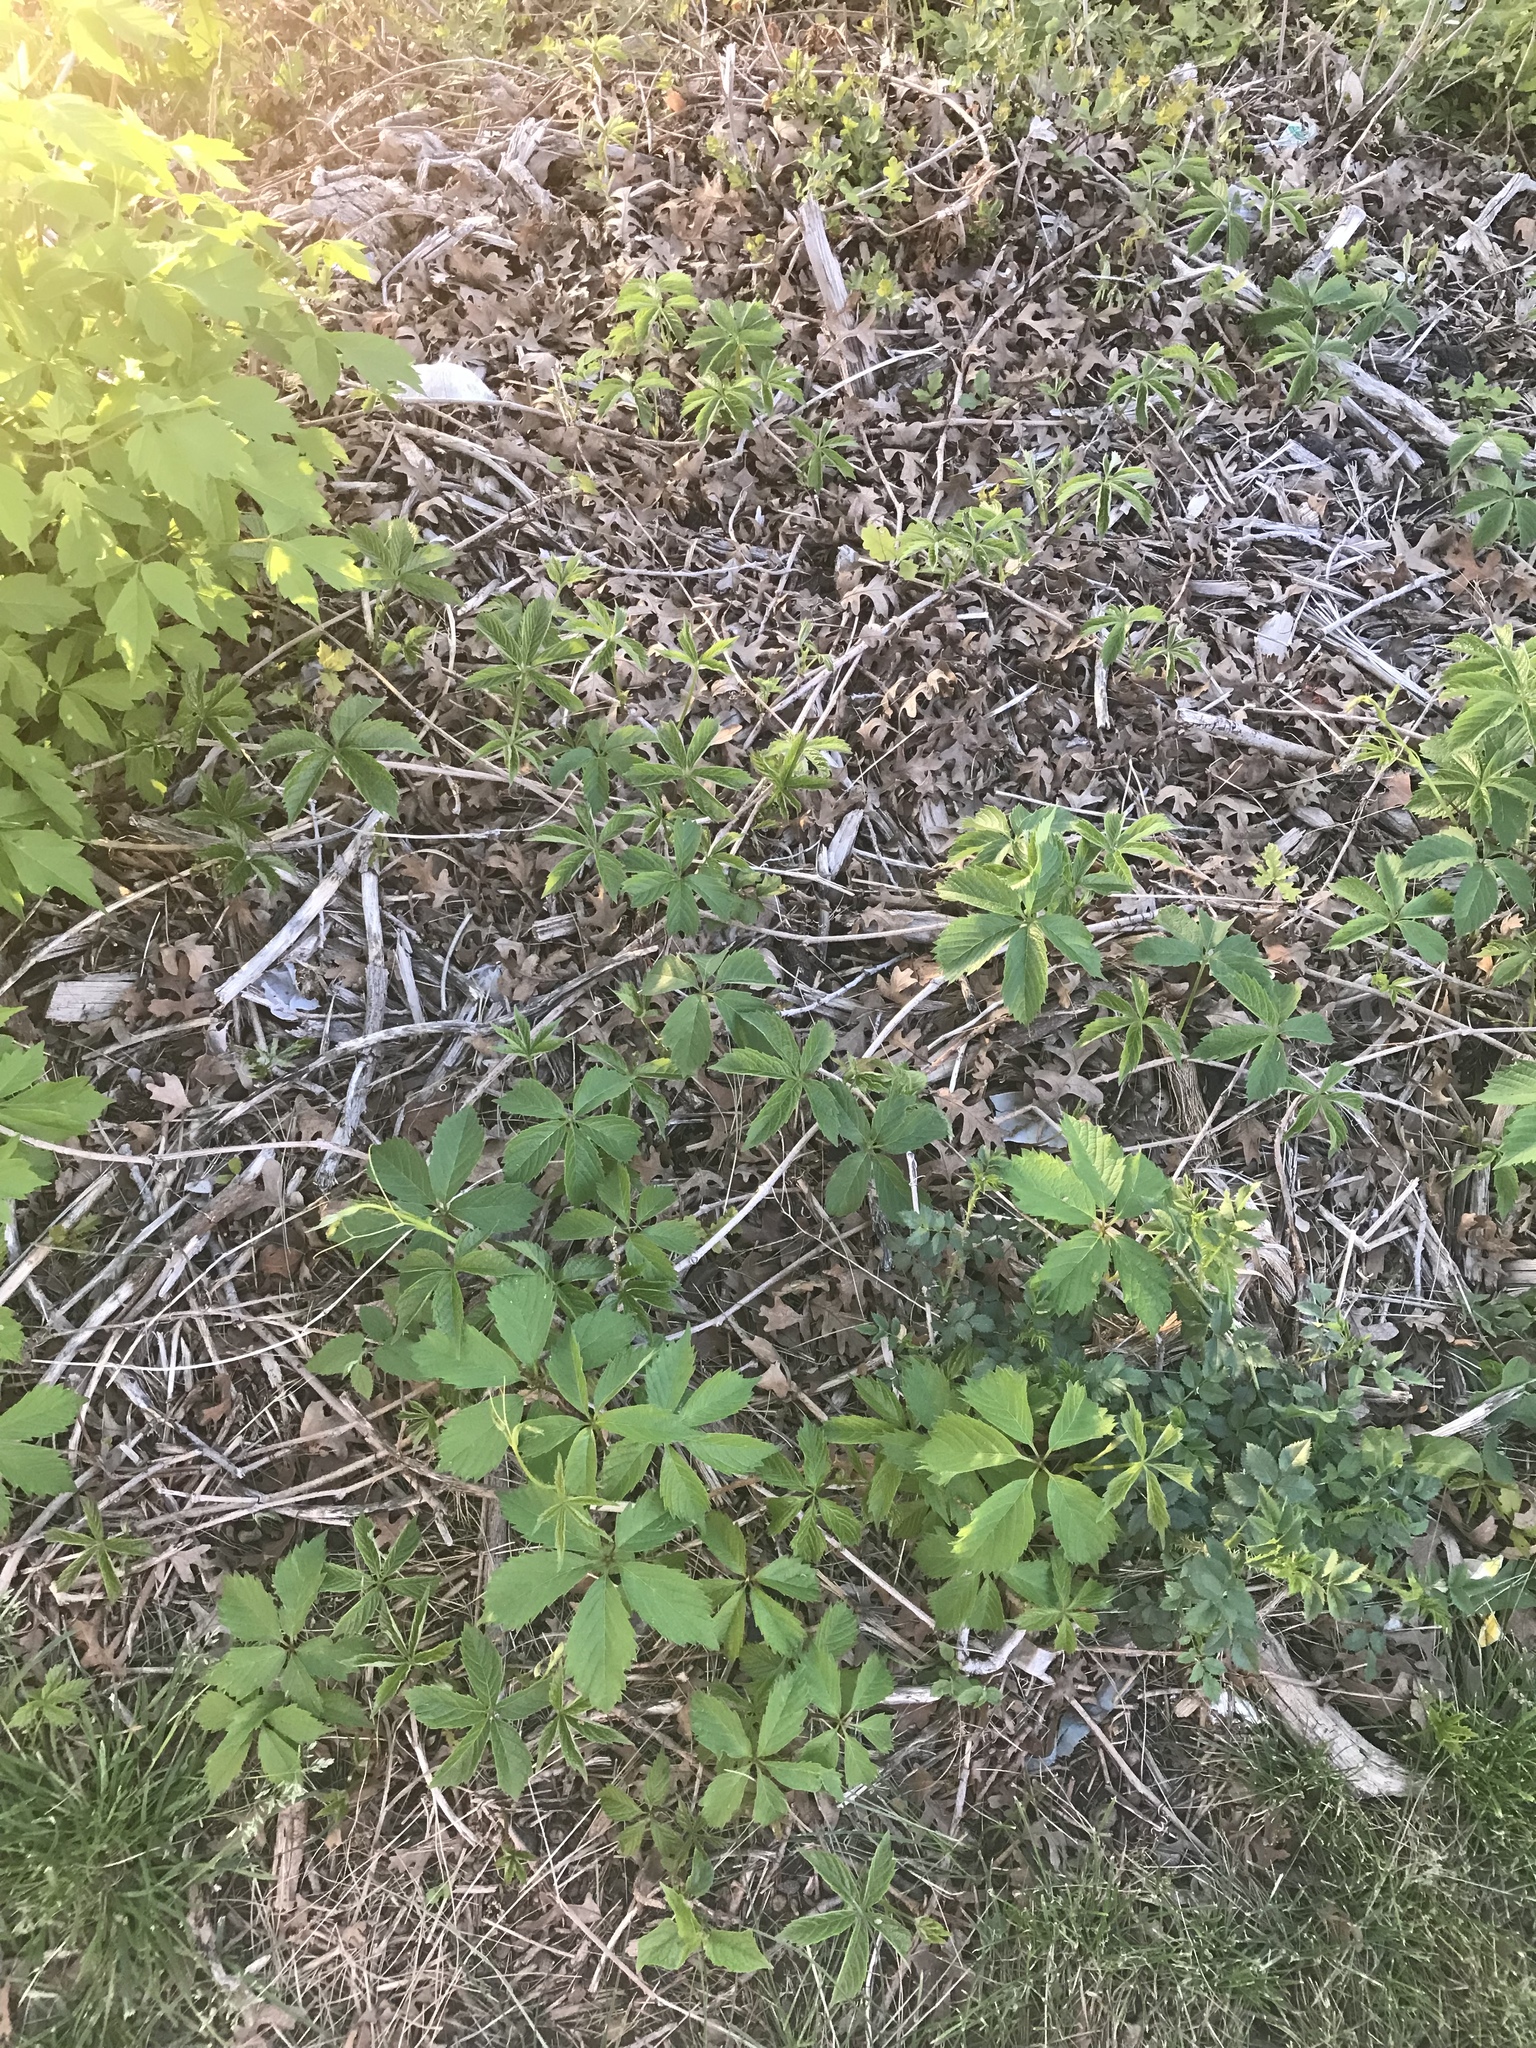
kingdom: Plantae
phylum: Tracheophyta
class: Magnoliopsida
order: Vitales
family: Vitaceae
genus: Parthenocissus
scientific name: Parthenocissus quinquefolia
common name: Virginia-creeper
